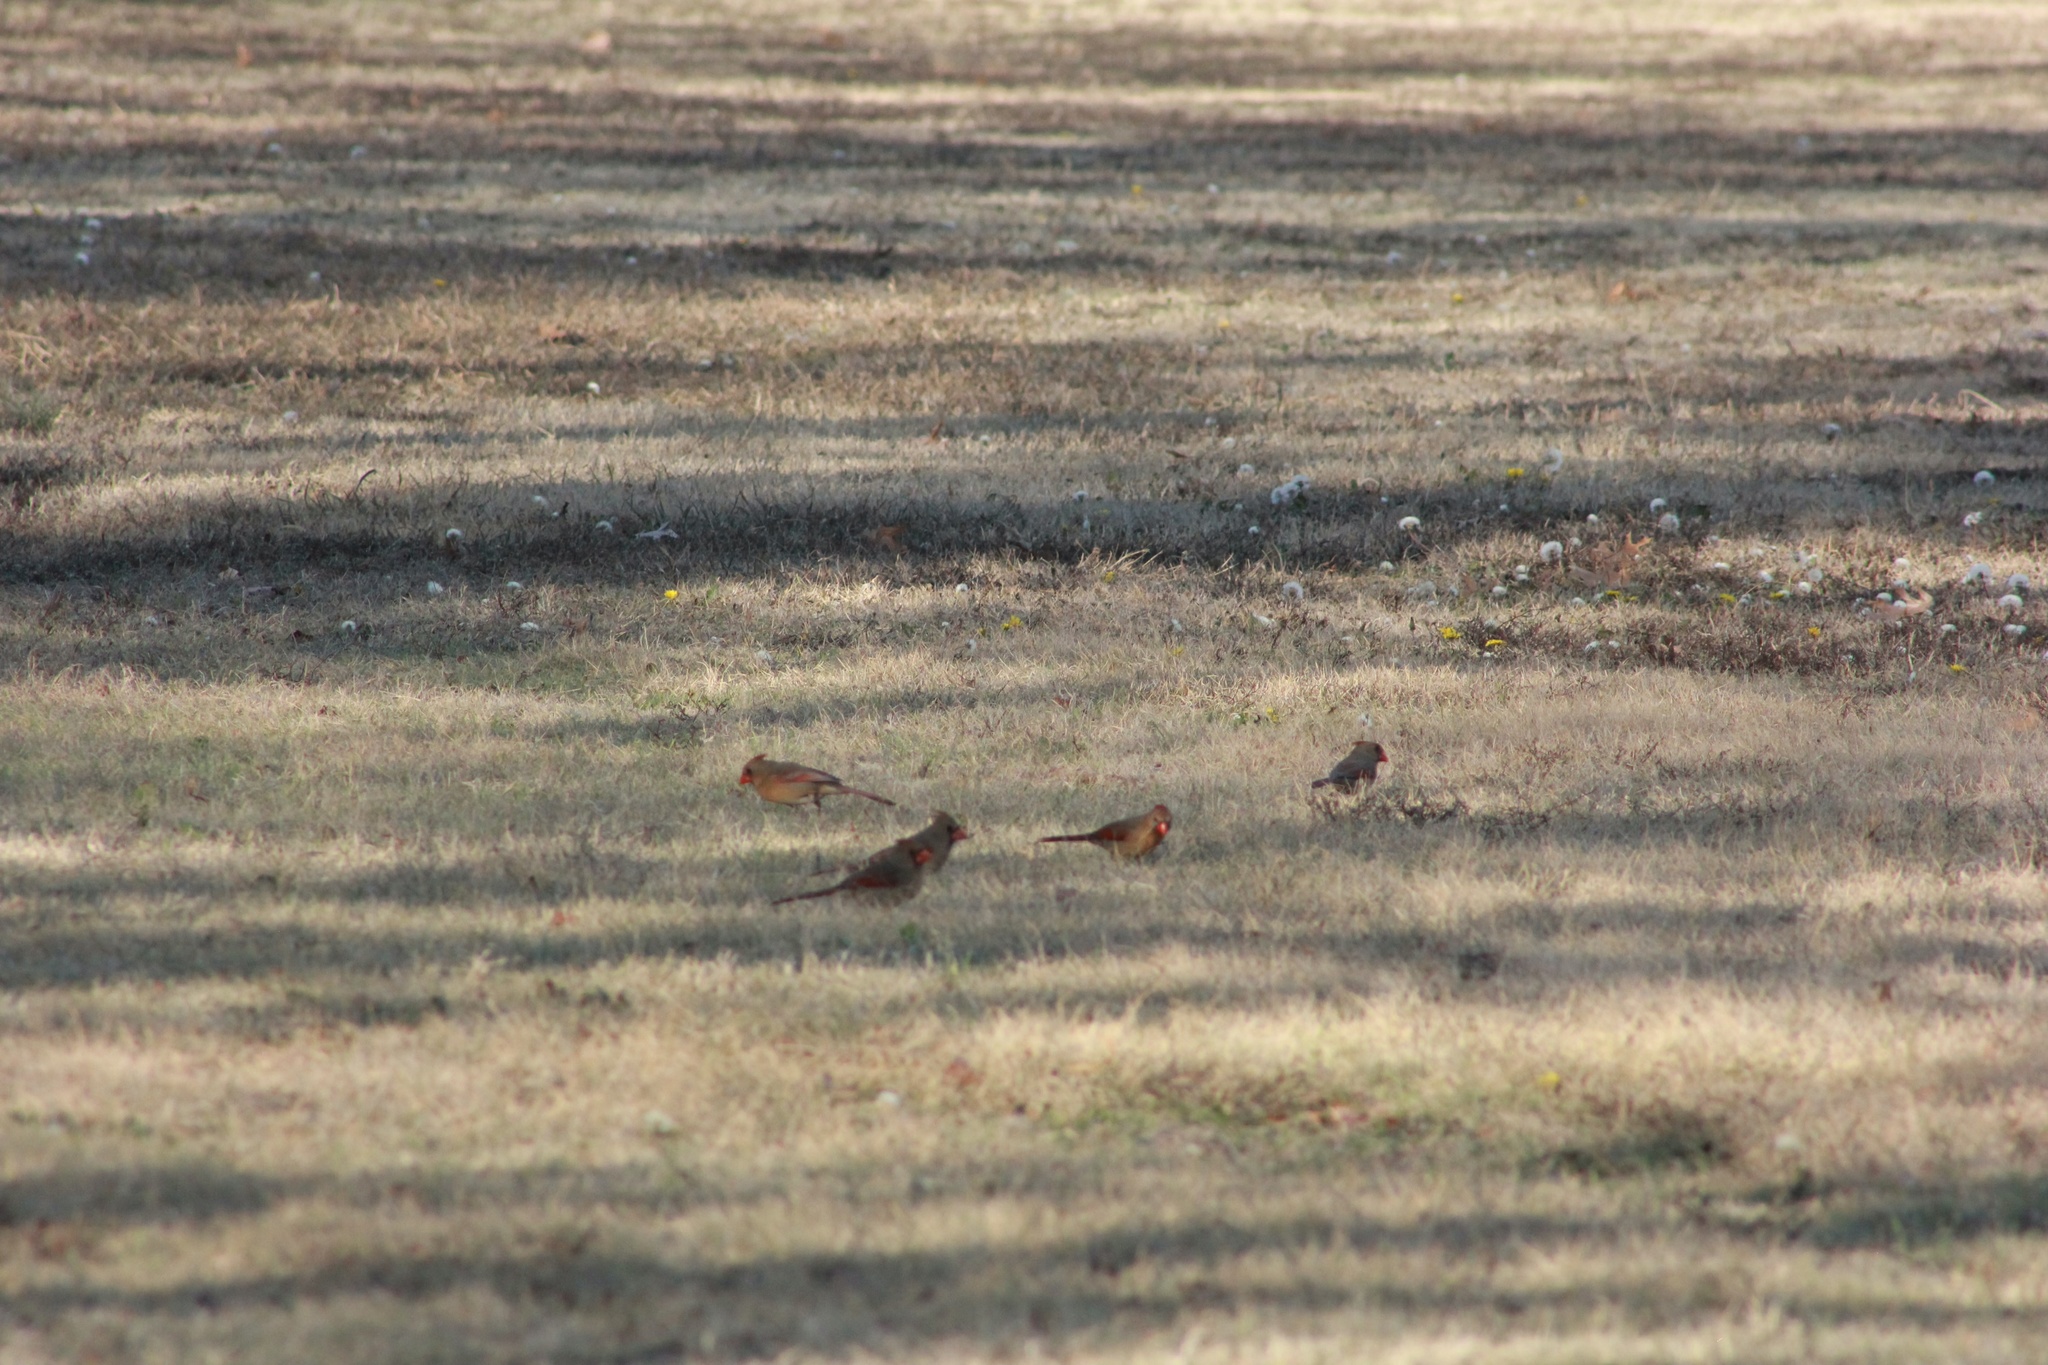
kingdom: Animalia
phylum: Chordata
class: Aves
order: Passeriformes
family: Cardinalidae
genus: Cardinalis
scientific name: Cardinalis cardinalis
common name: Northern cardinal
